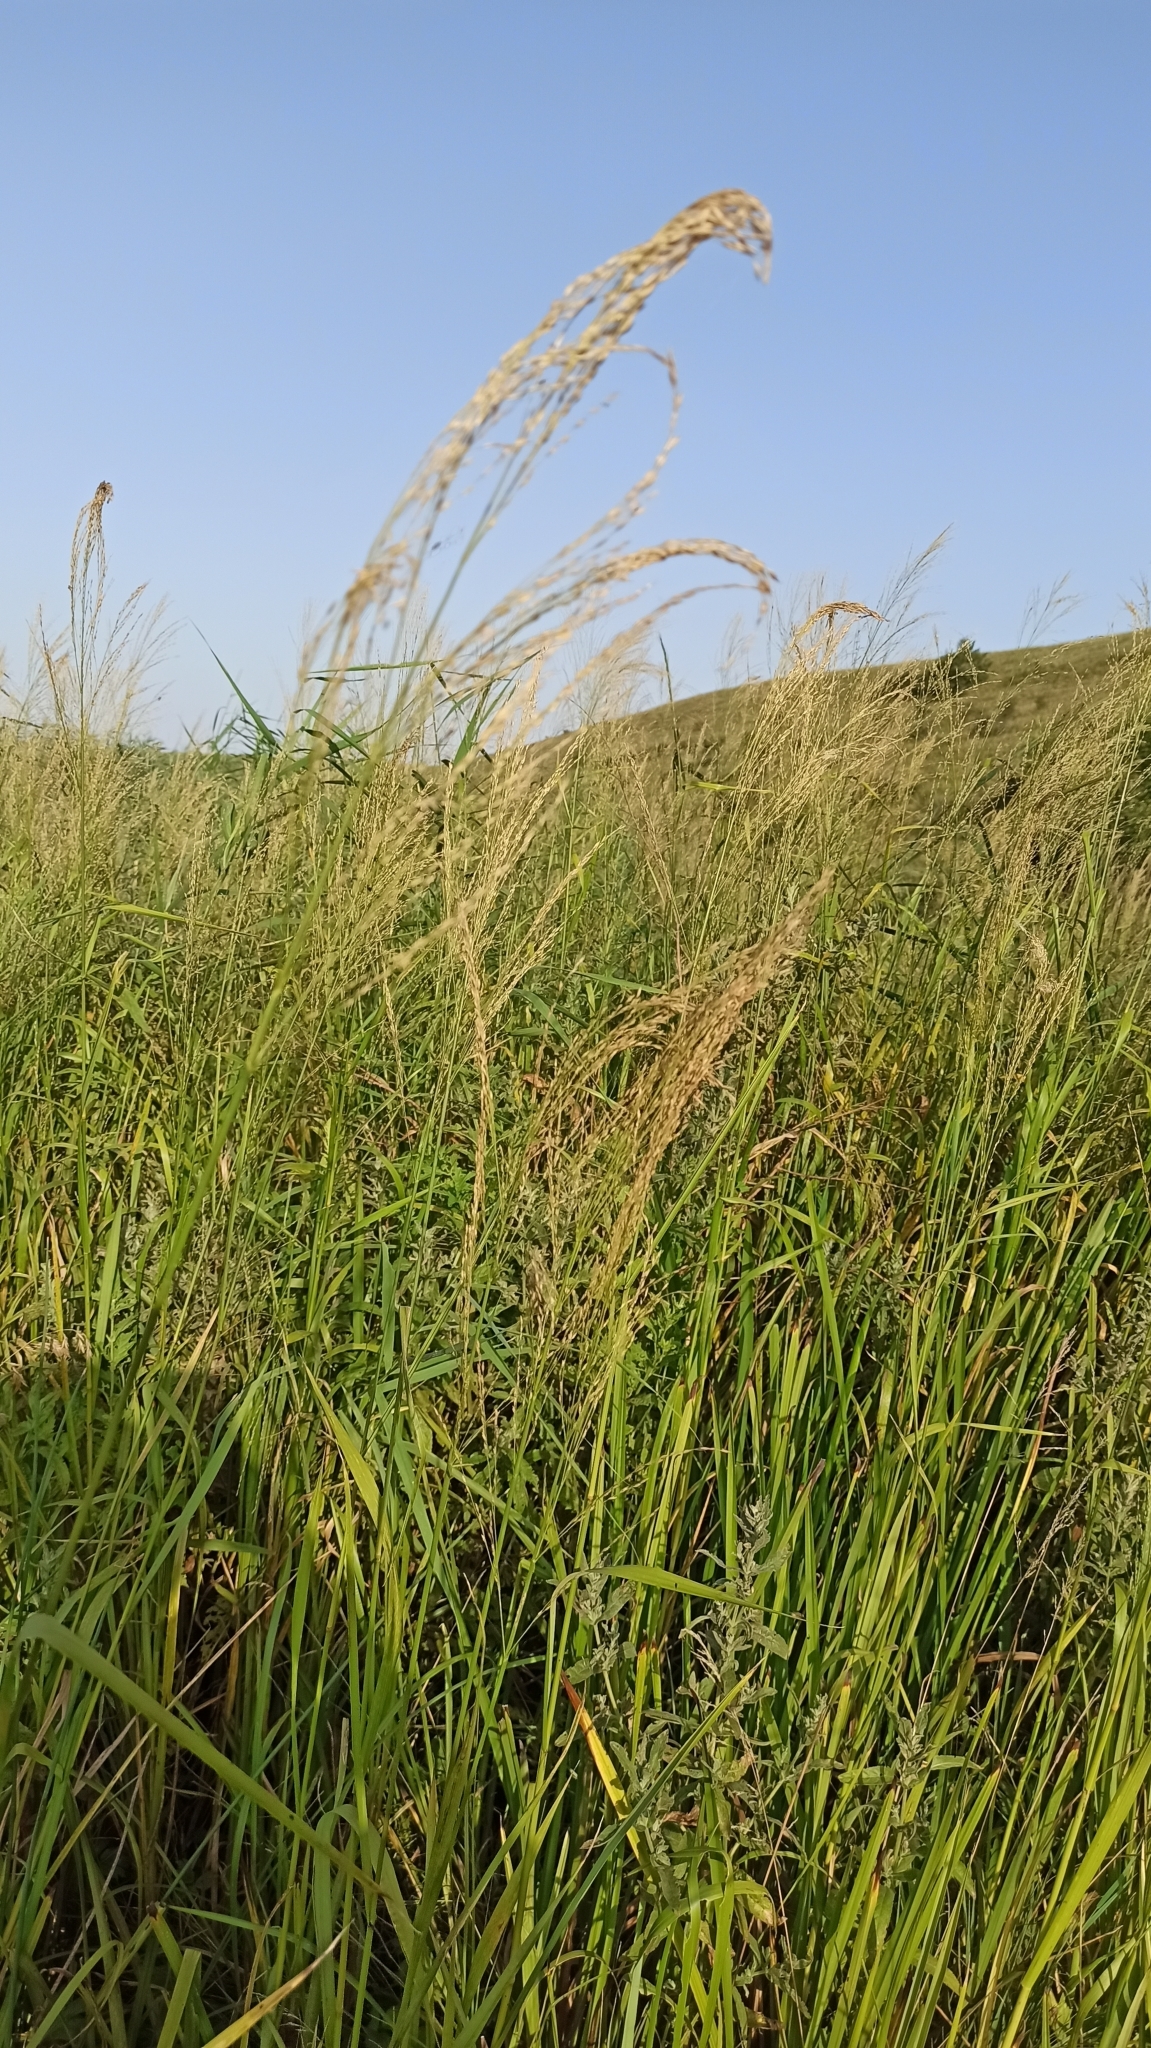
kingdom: Plantae
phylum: Tracheophyta
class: Liliopsida
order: Poales
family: Poaceae
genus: Glyceria
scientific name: Glyceria arundinacea
